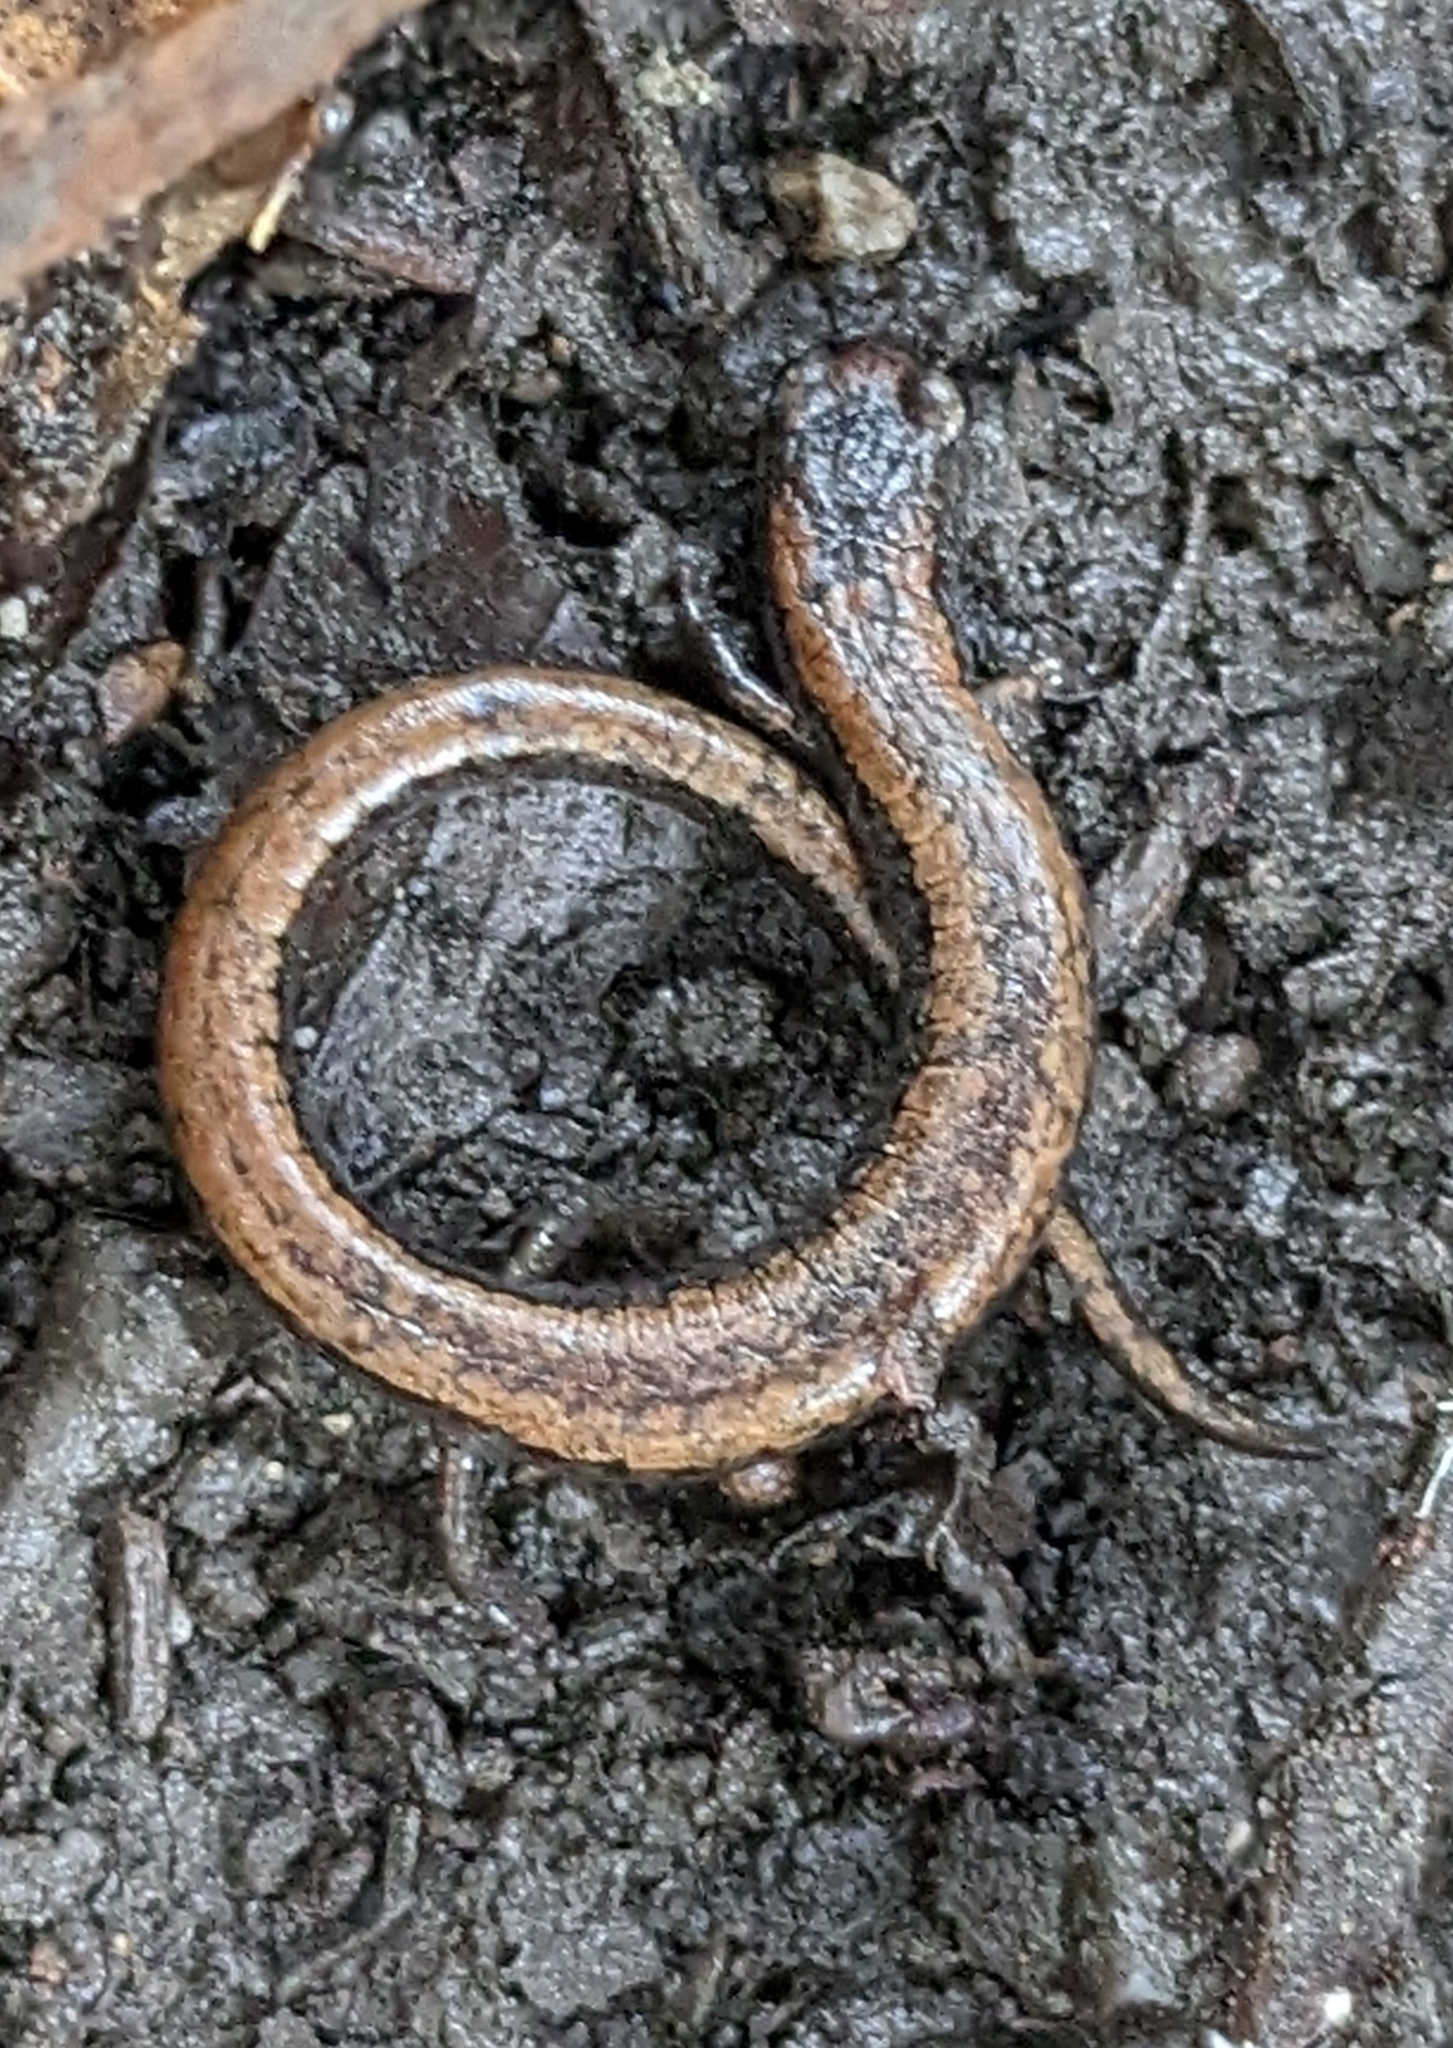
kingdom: Animalia
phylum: Chordata
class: Amphibia
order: Caudata
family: Plethodontidae
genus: Batrachoseps
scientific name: Batrachoseps attenuatus
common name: California slender salamander
